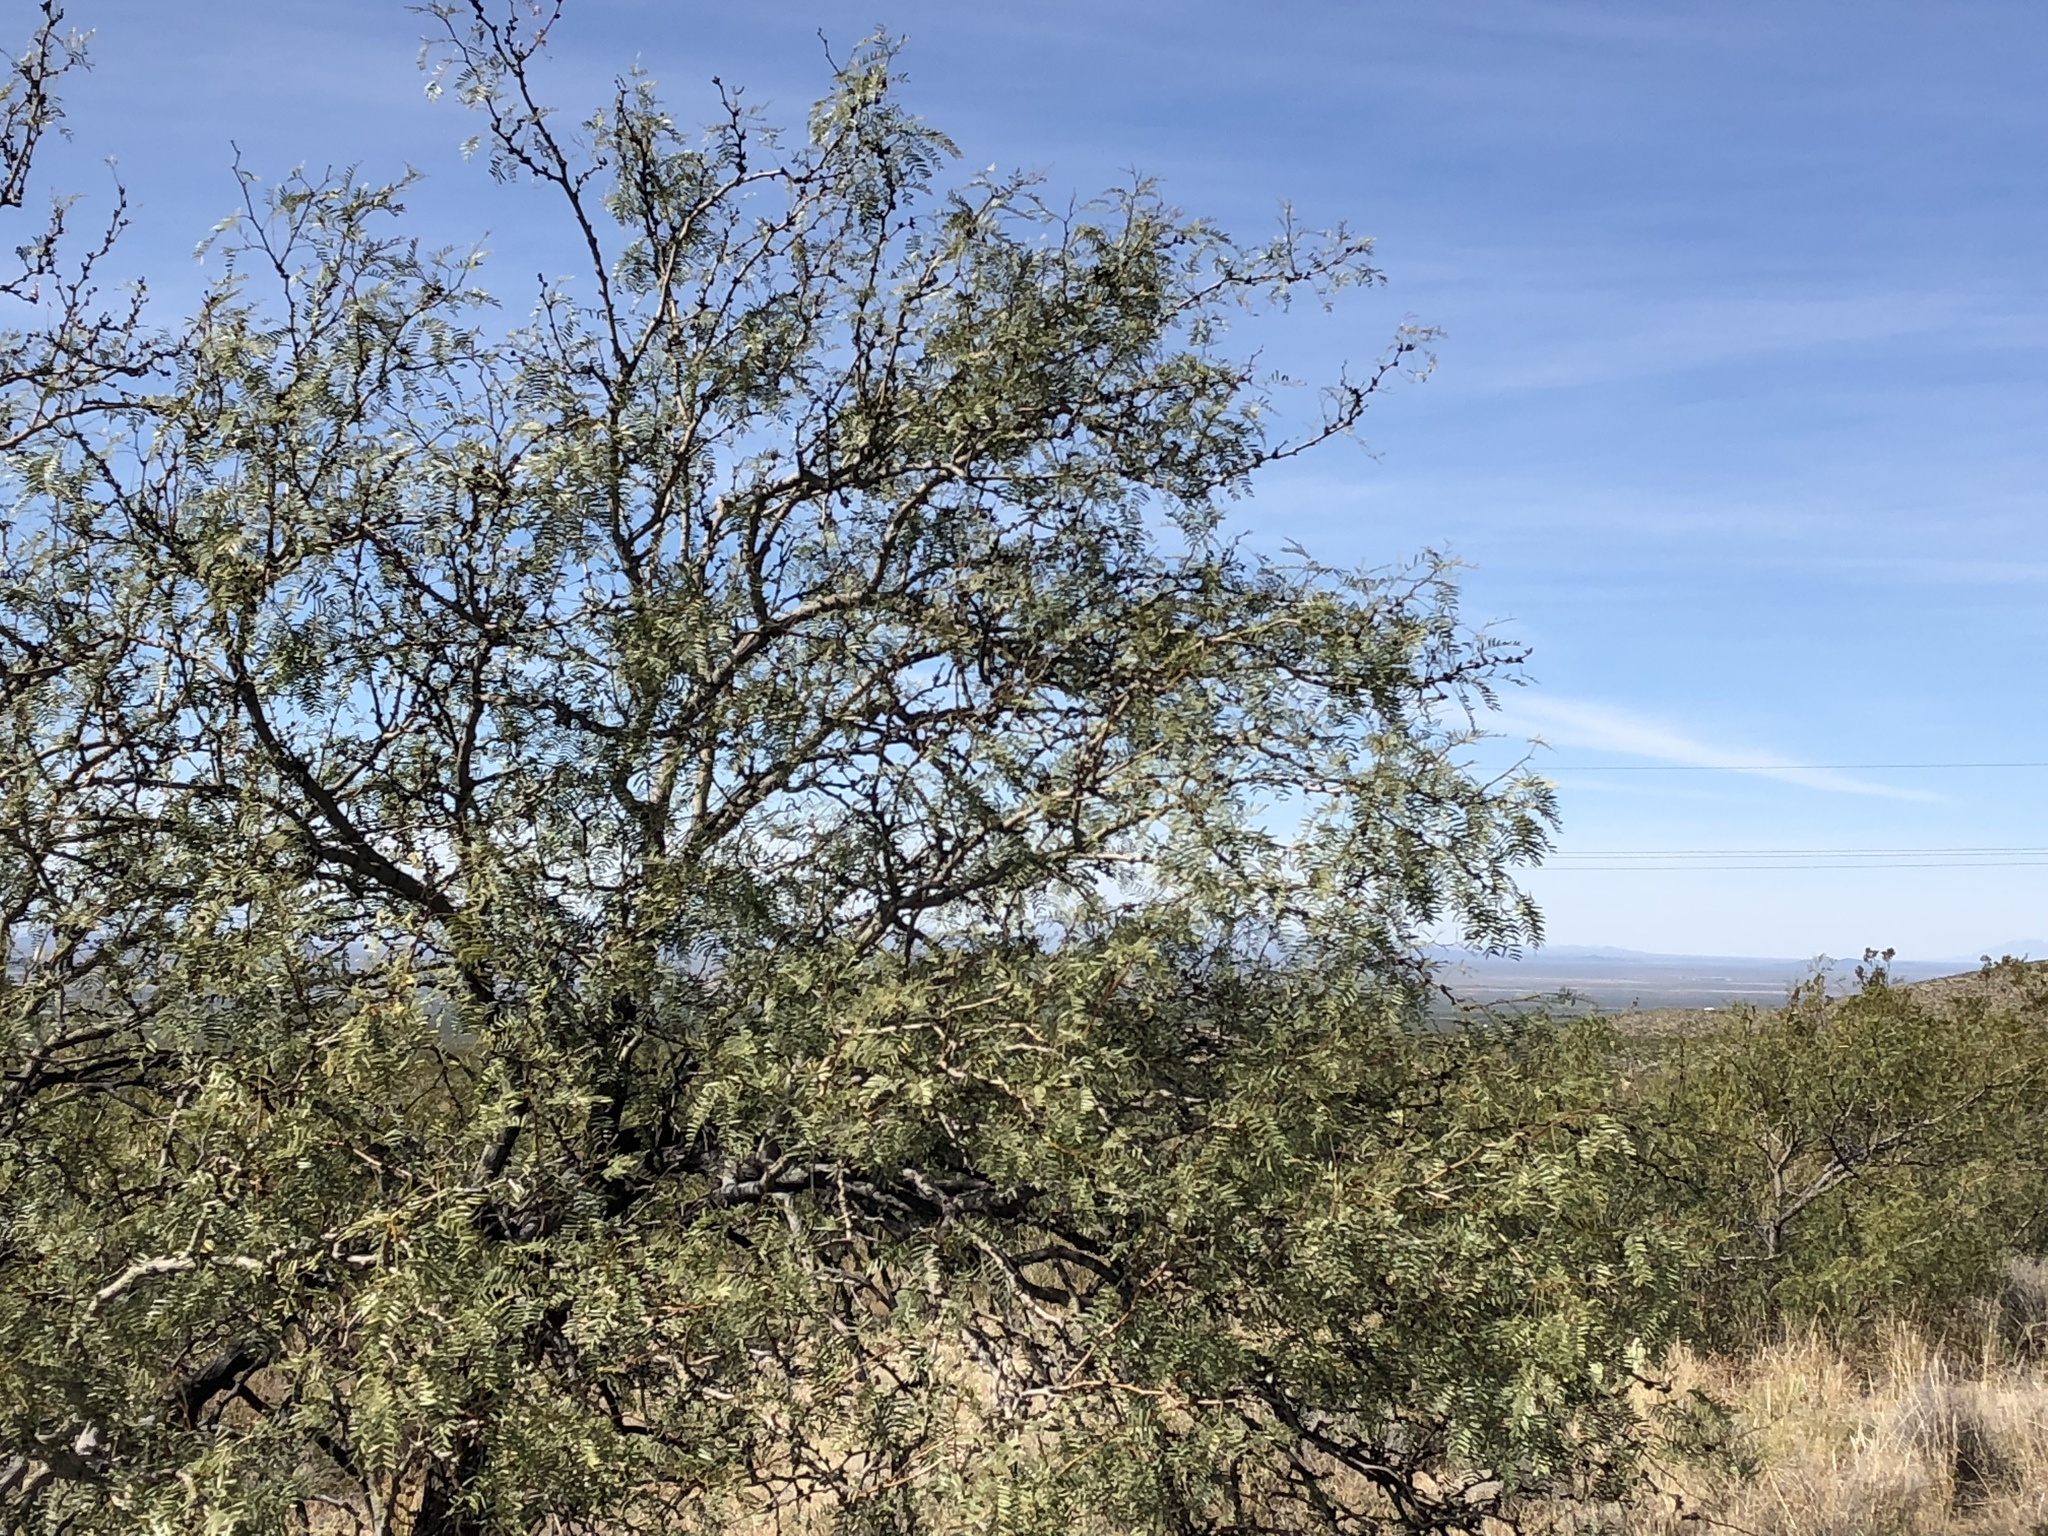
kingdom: Plantae
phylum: Tracheophyta
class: Magnoliopsida
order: Fabales
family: Fabaceae
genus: Prosopis
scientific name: Prosopis glandulosa
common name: Honey mesquite
